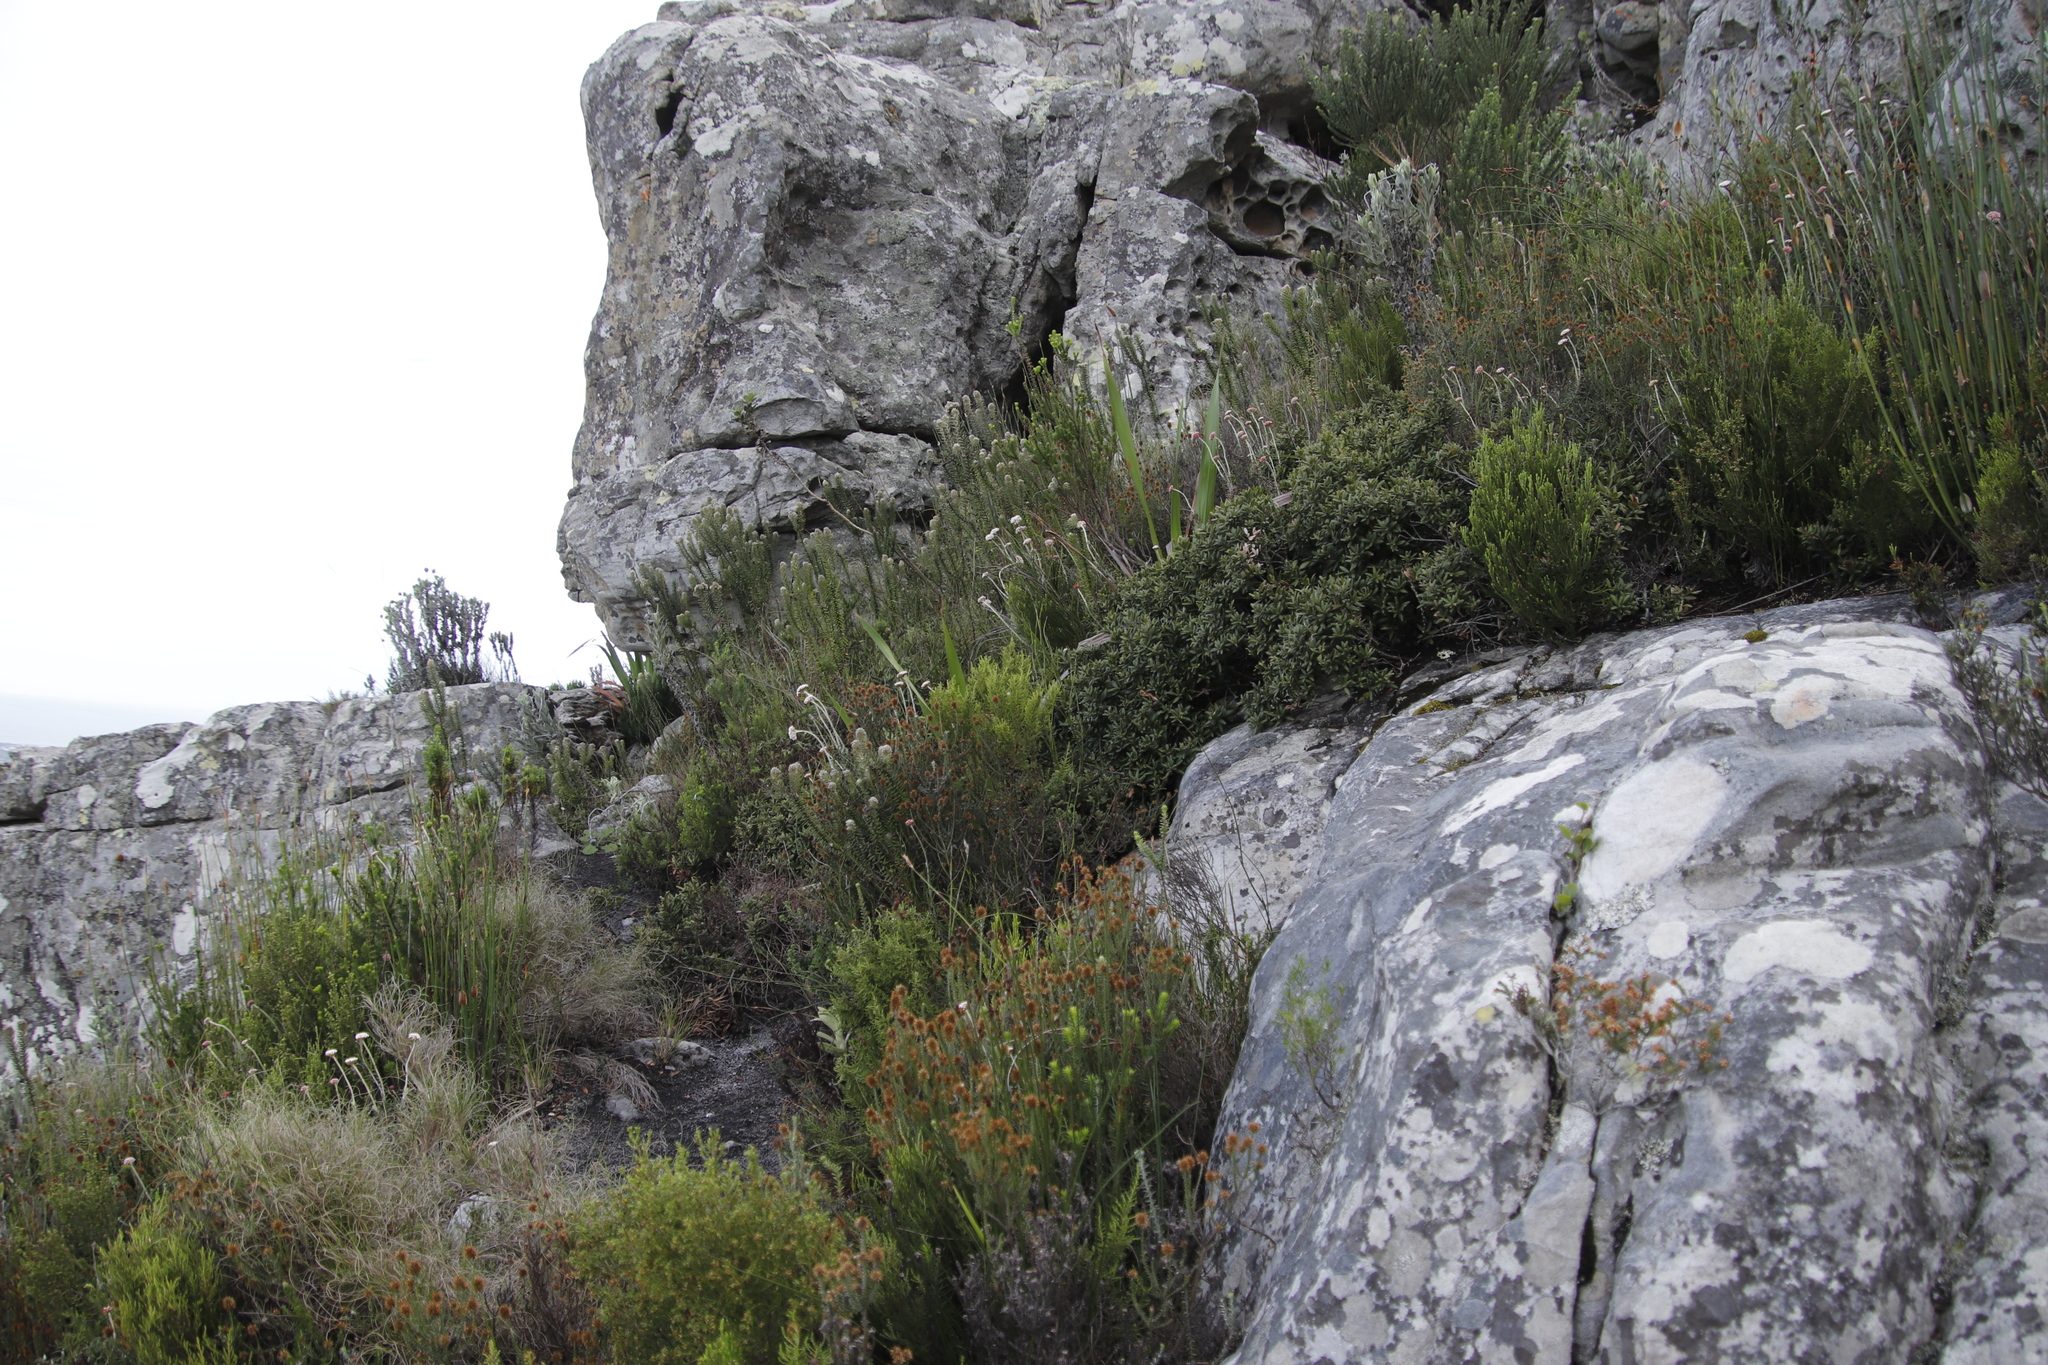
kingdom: Plantae
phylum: Tracheophyta
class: Magnoliopsida
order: Asterales
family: Asteraceae
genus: Anaxeton
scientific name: Anaxeton arborescens
